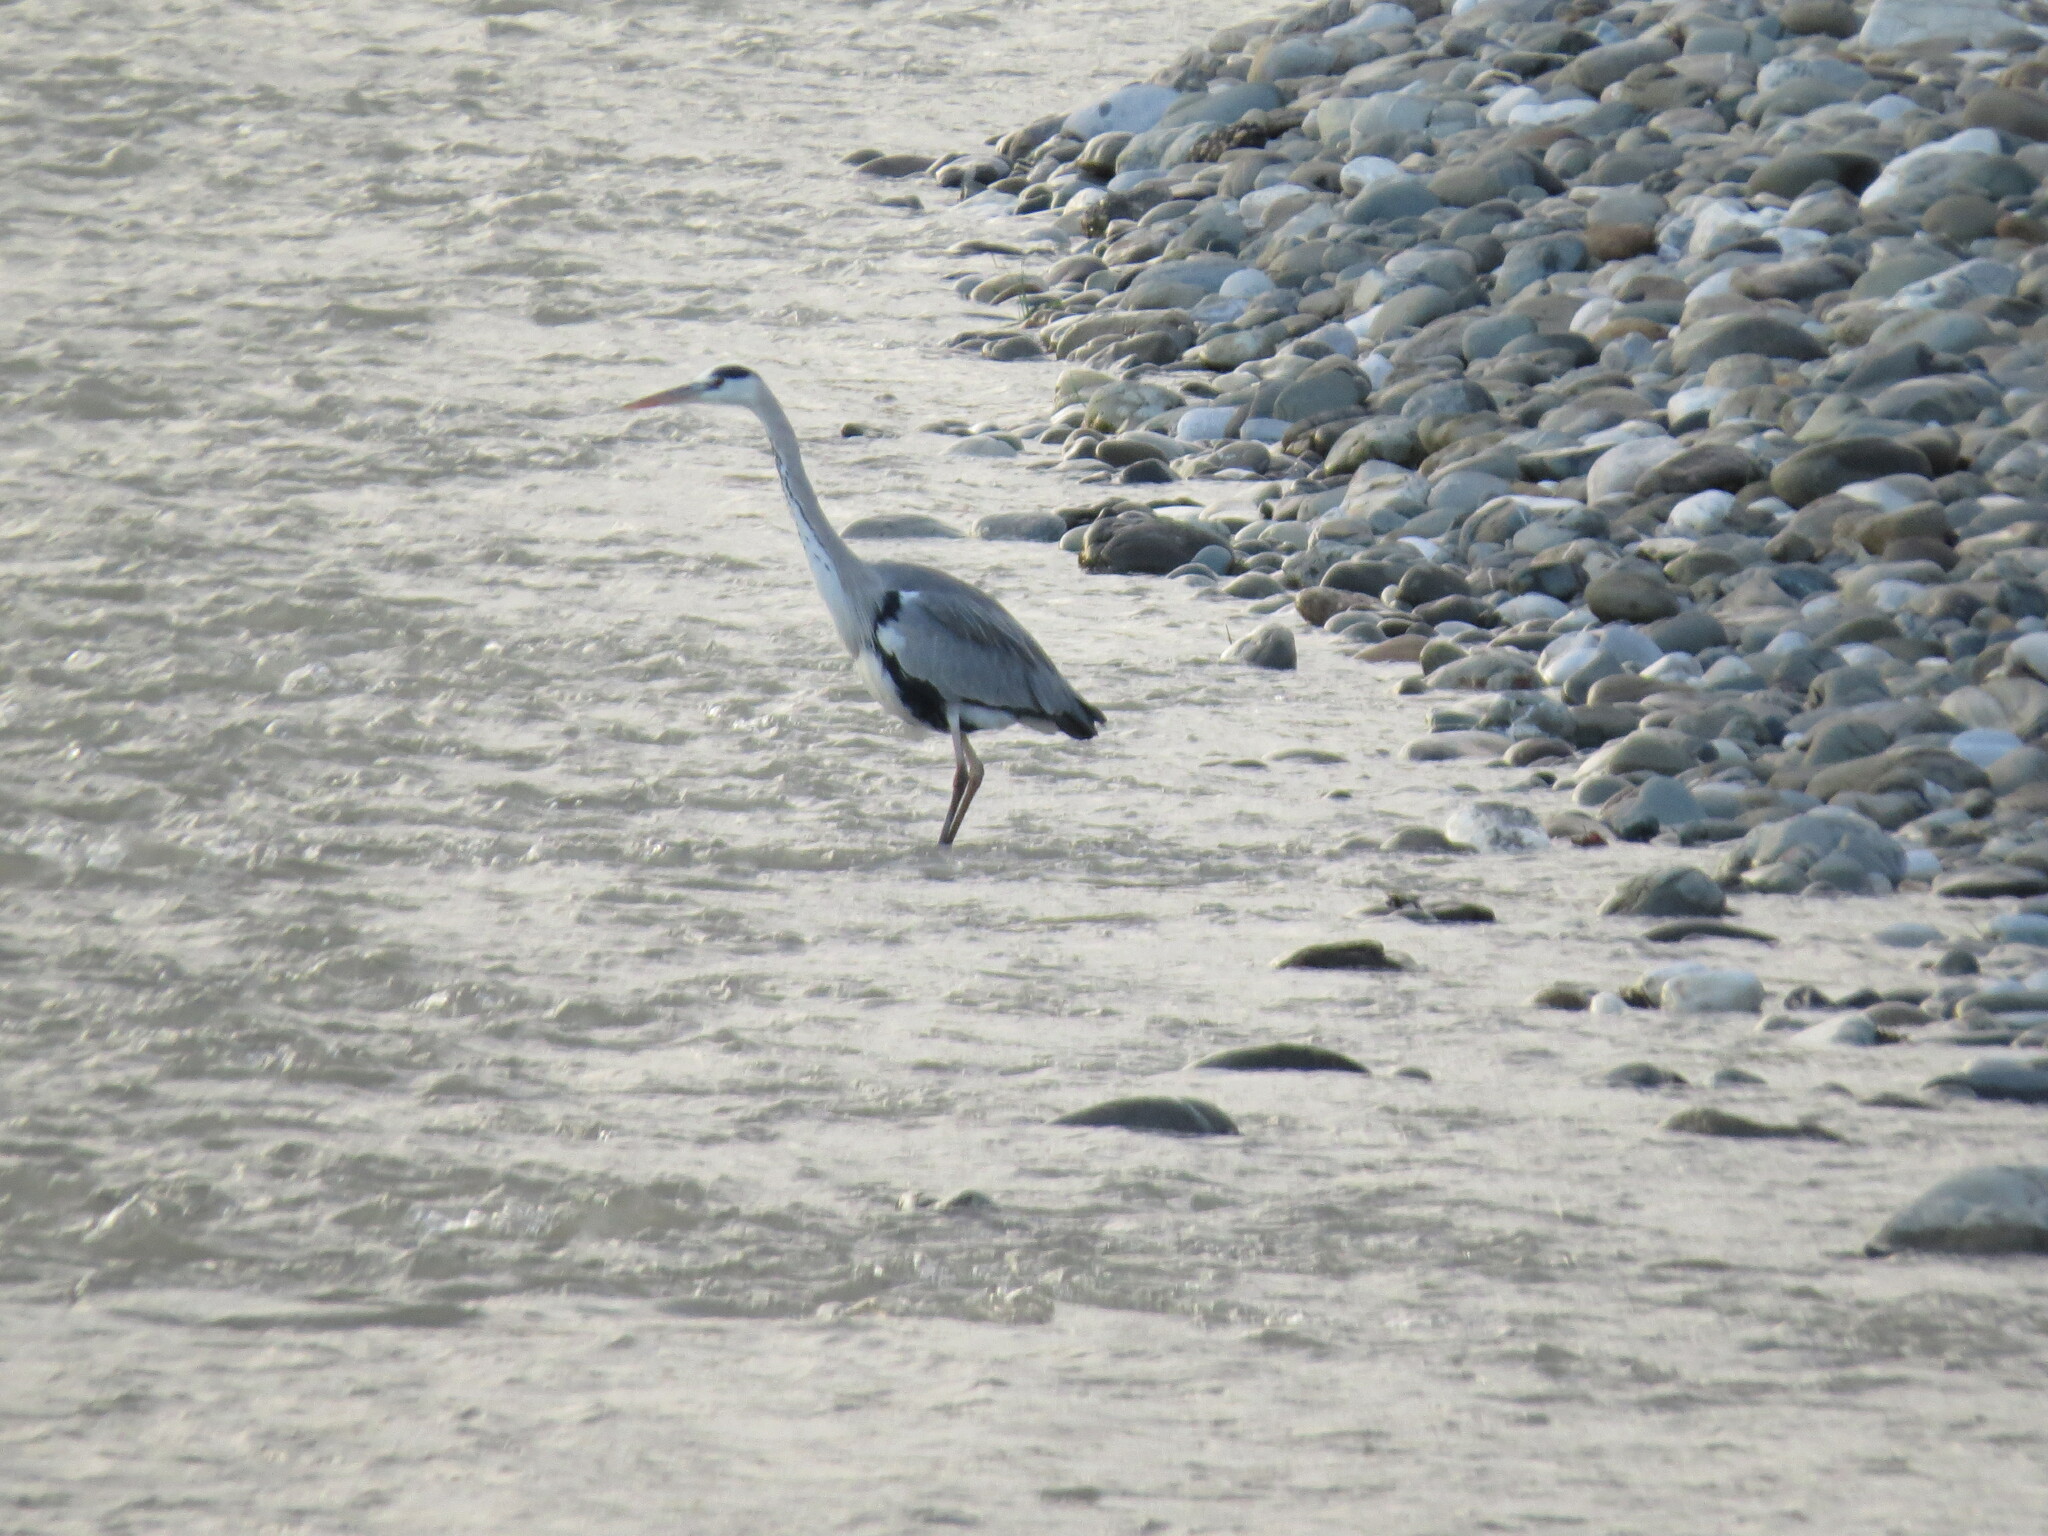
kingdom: Animalia
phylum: Chordata
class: Aves
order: Pelecaniformes
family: Ardeidae
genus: Ardea
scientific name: Ardea cinerea
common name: Grey heron
